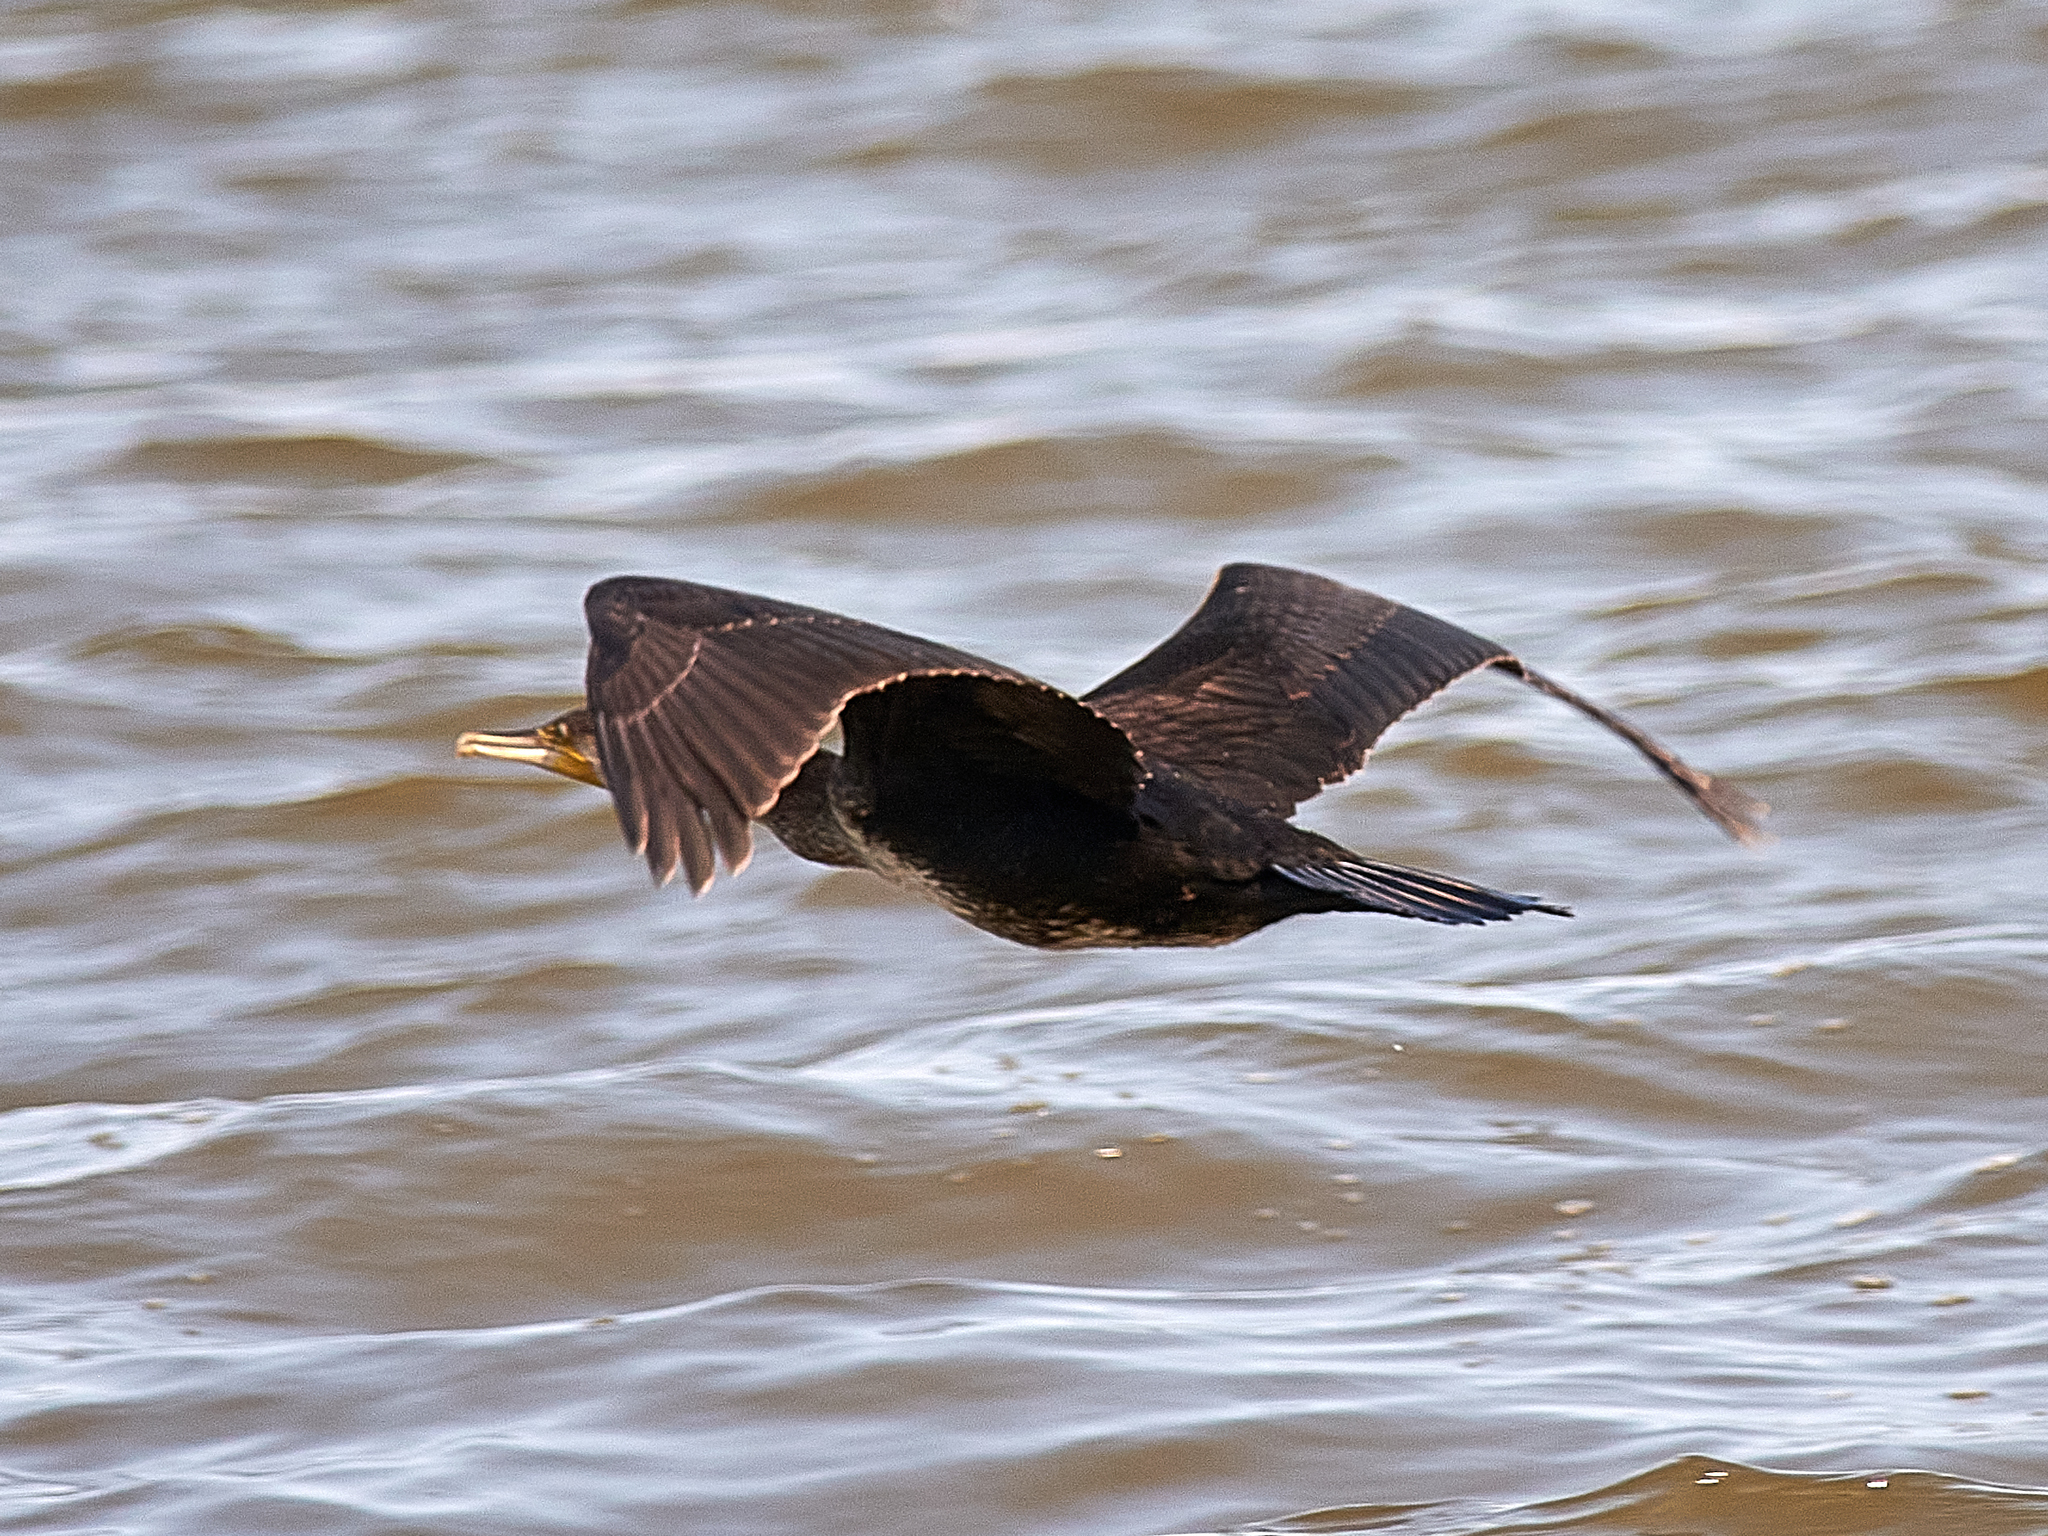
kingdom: Animalia
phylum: Chordata
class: Aves
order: Suliformes
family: Phalacrocoracidae
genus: Phalacrocorax
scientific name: Phalacrocorax carbo
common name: Great cormorant
